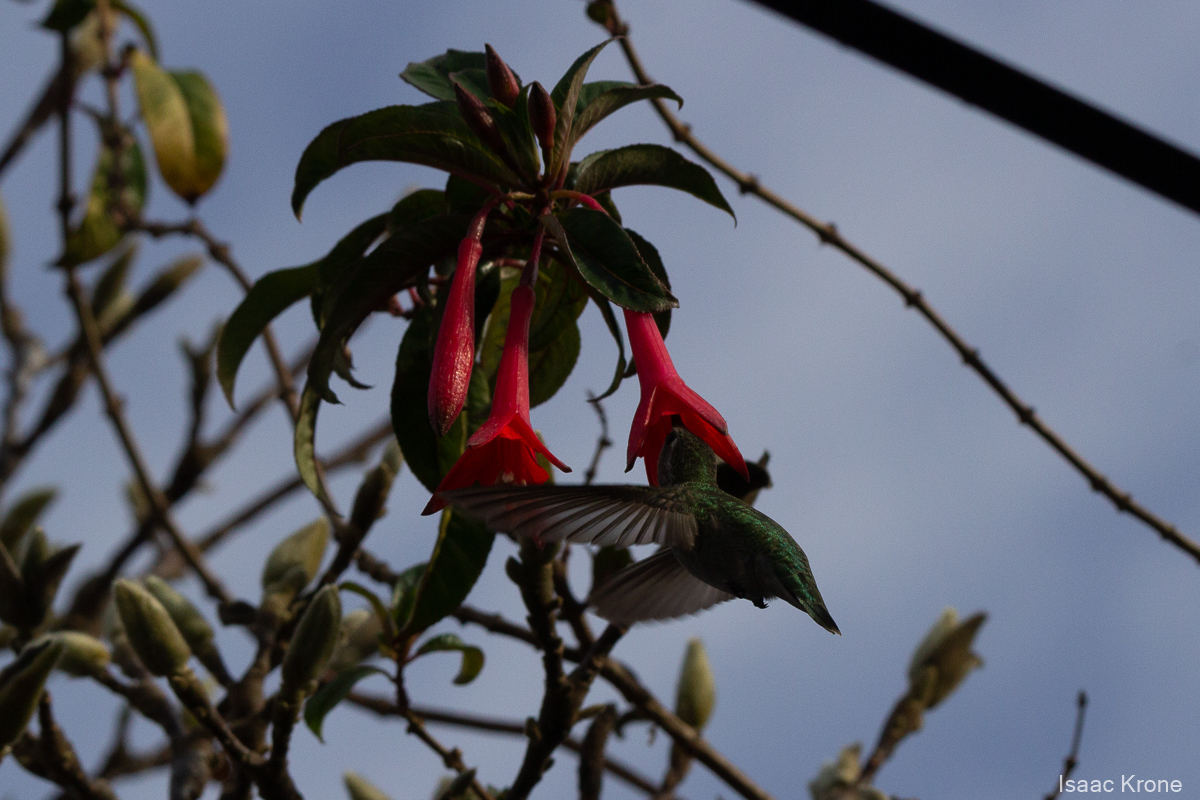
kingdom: Animalia
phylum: Chordata
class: Aves
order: Apodiformes
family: Trochilidae
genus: Calypte
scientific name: Calypte anna
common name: Anna's hummingbird
